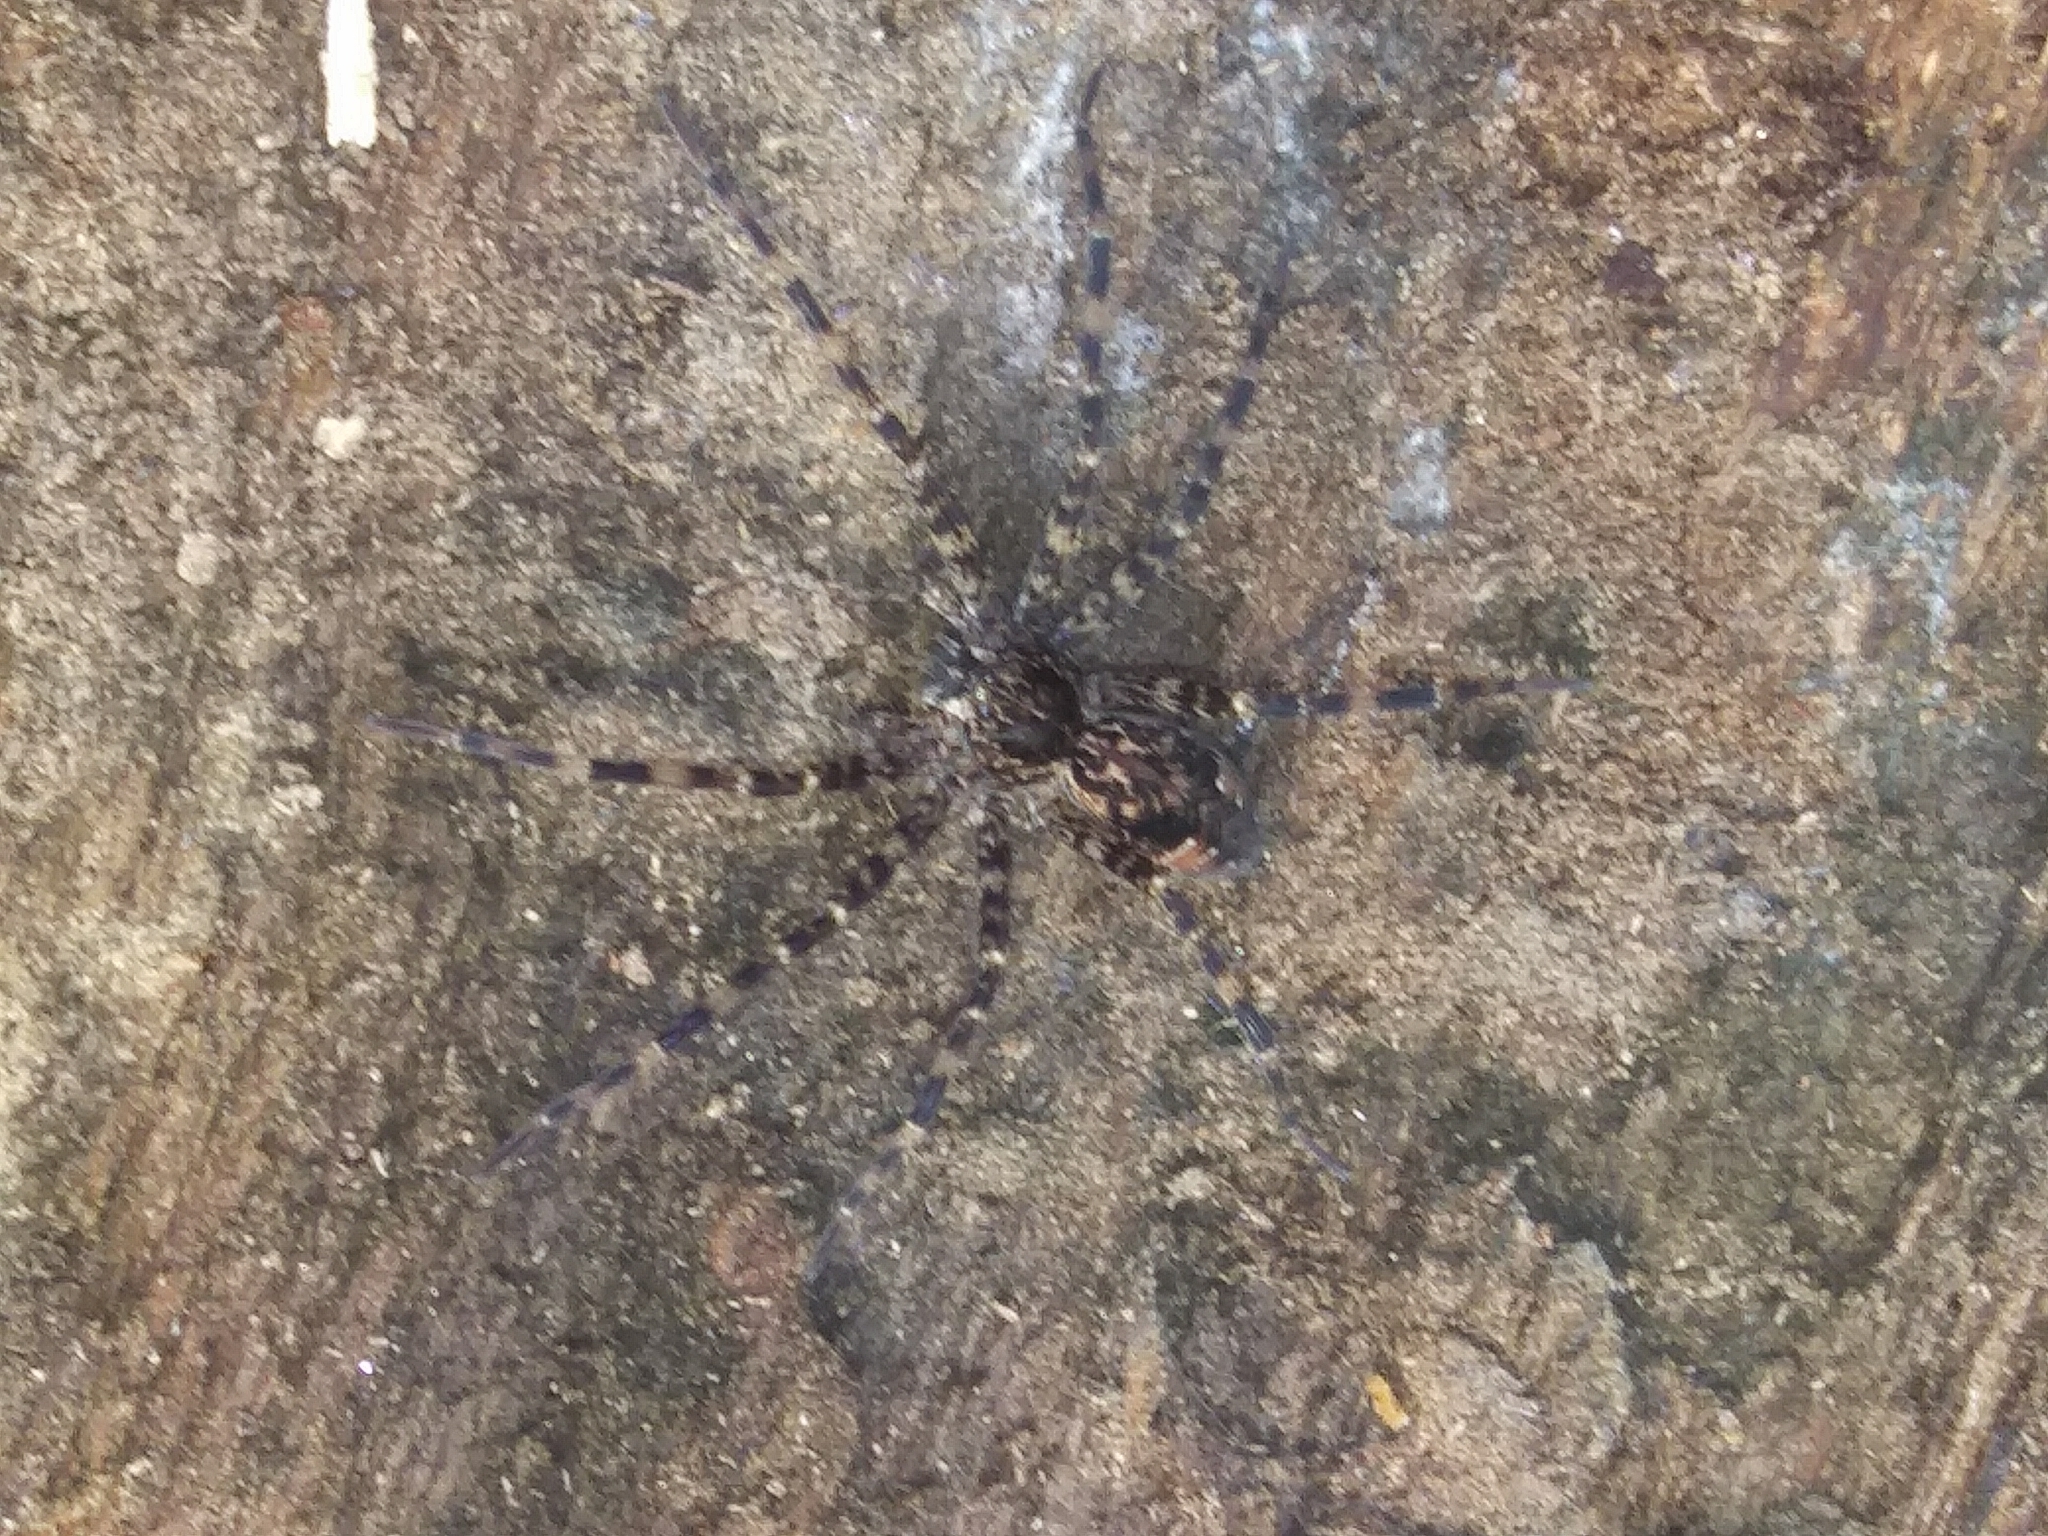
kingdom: Animalia
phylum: Arthropoda
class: Arachnida
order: Araneae
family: Pisauridae
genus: Dolomedes
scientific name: Dolomedes tenebrosus
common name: Dark fishing spider
